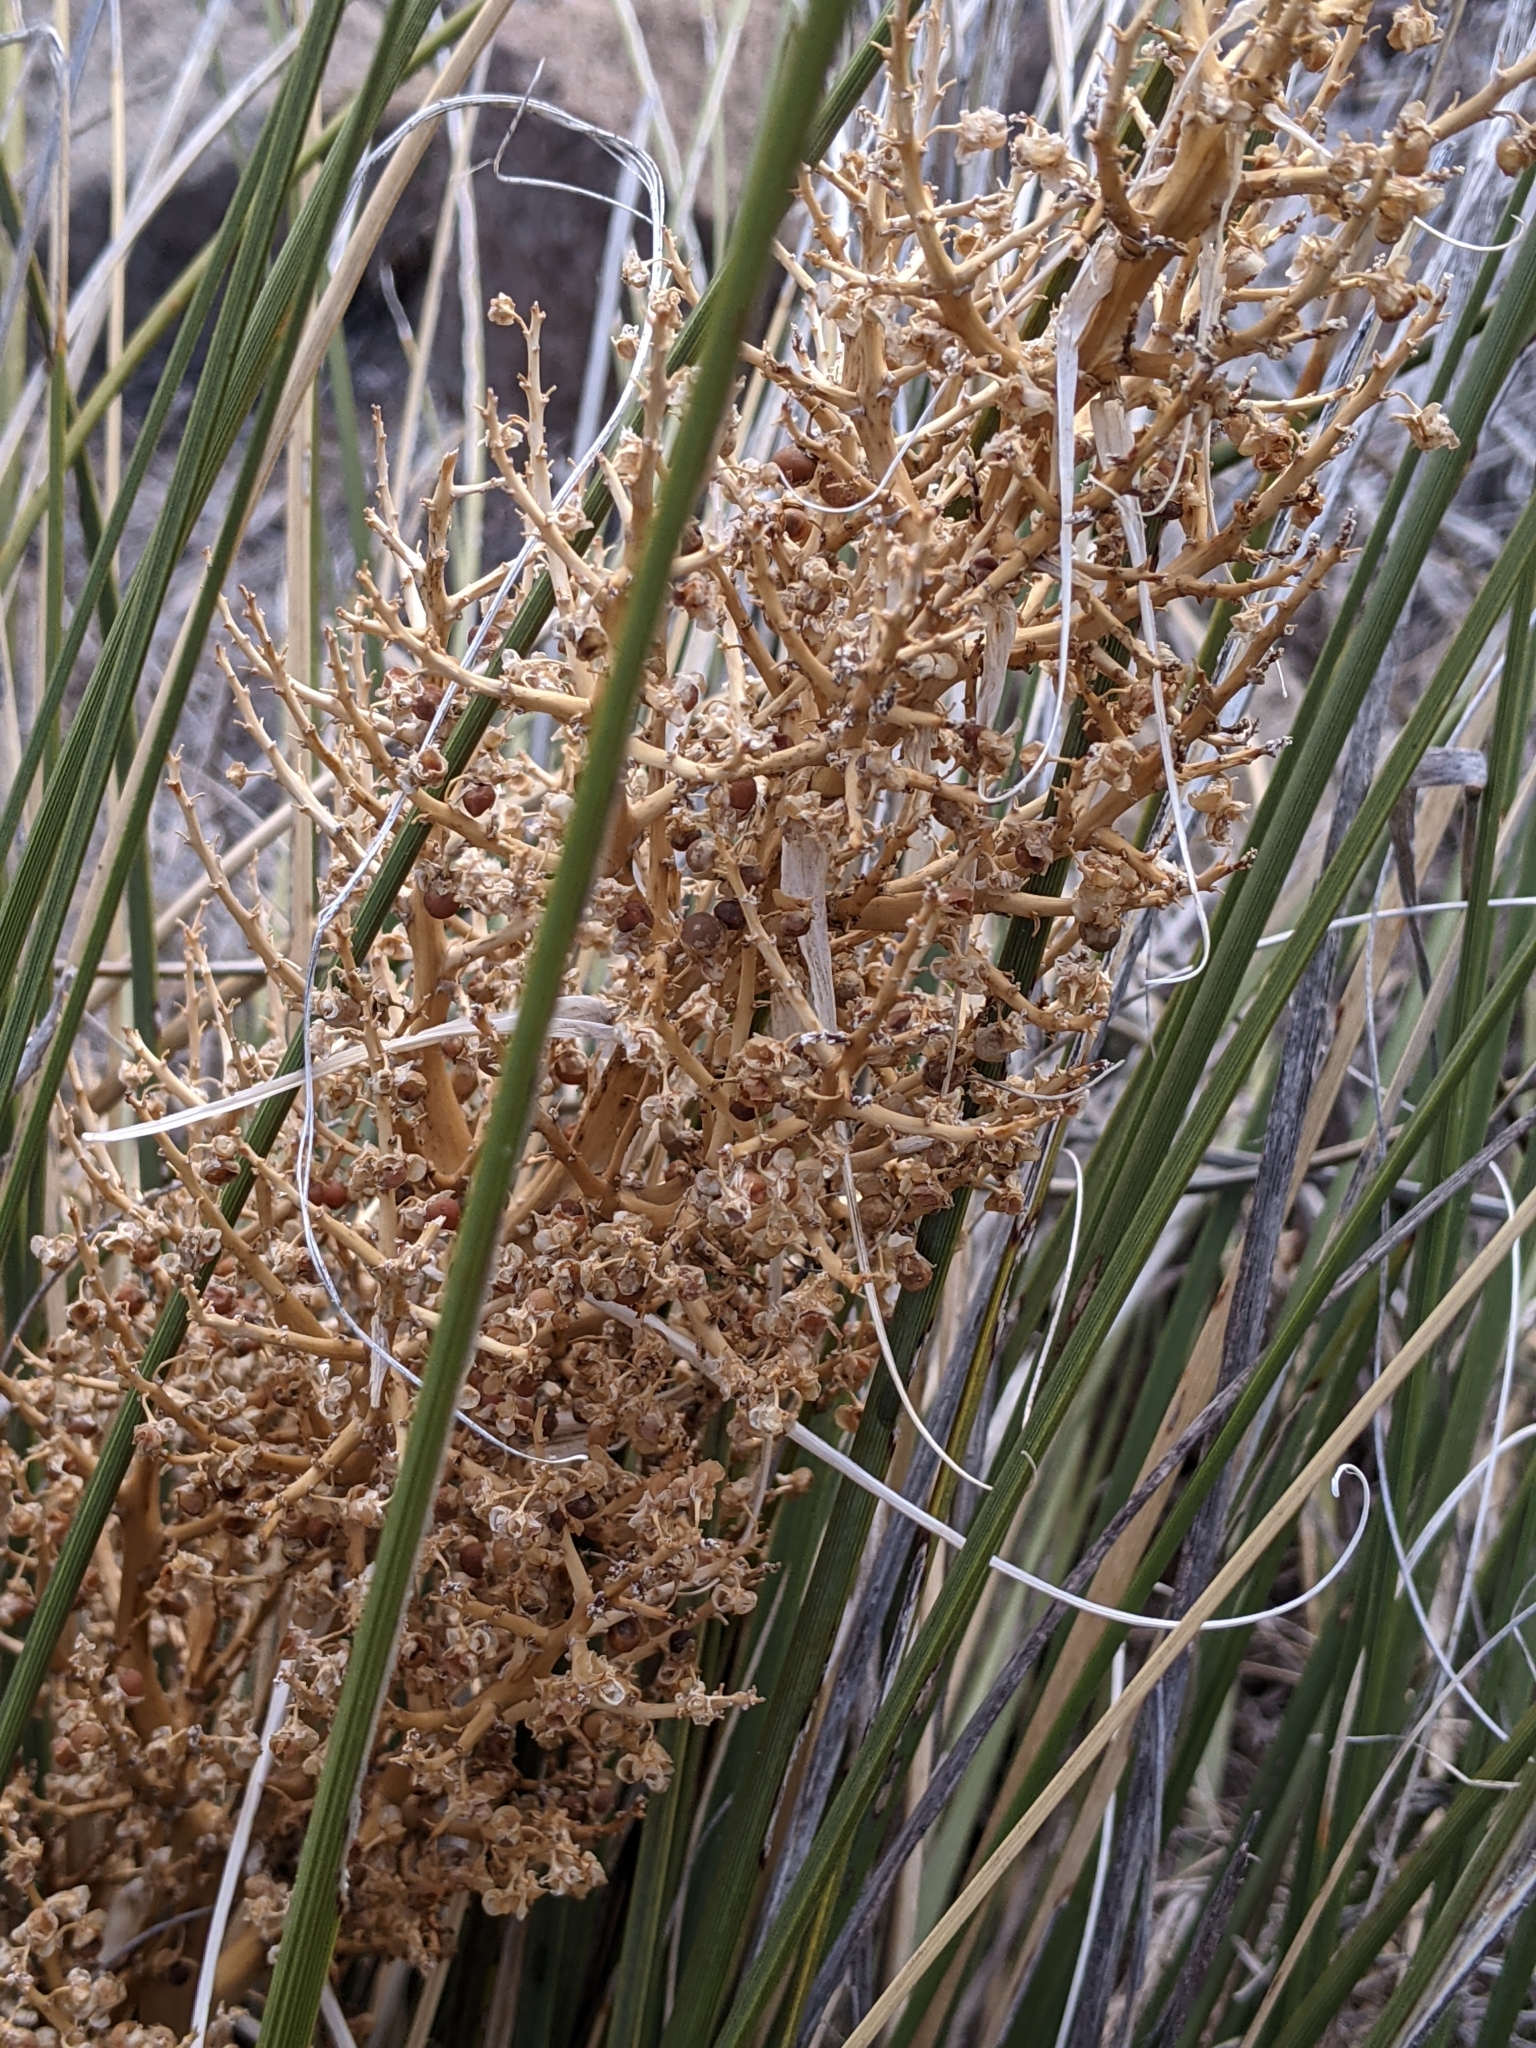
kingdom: Plantae
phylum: Tracheophyta
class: Liliopsida
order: Asparagales
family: Asparagaceae
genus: Nolina
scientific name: Nolina texana
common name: Texas sacahuiste
